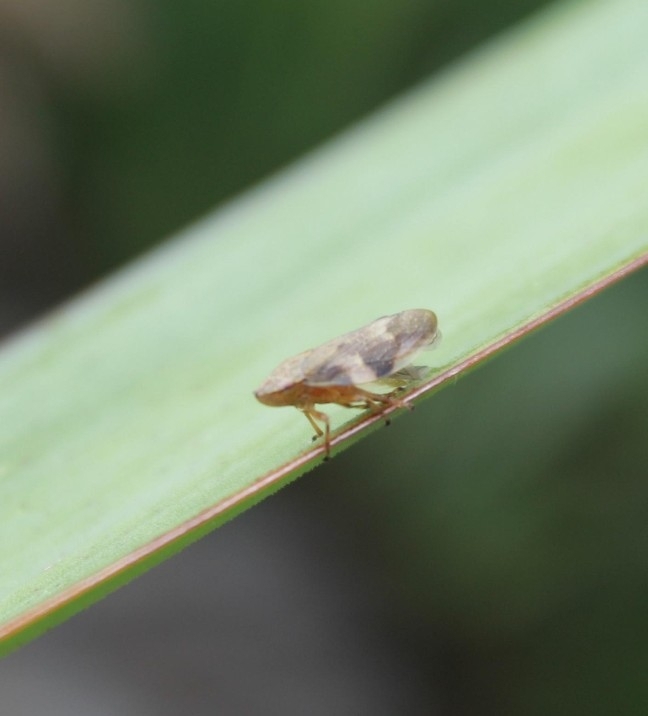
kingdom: Animalia
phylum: Arthropoda
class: Insecta
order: Hemiptera
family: Aphrophoridae
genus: Aphrophora
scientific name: Aphrophora alni
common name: European alder spittlebug
